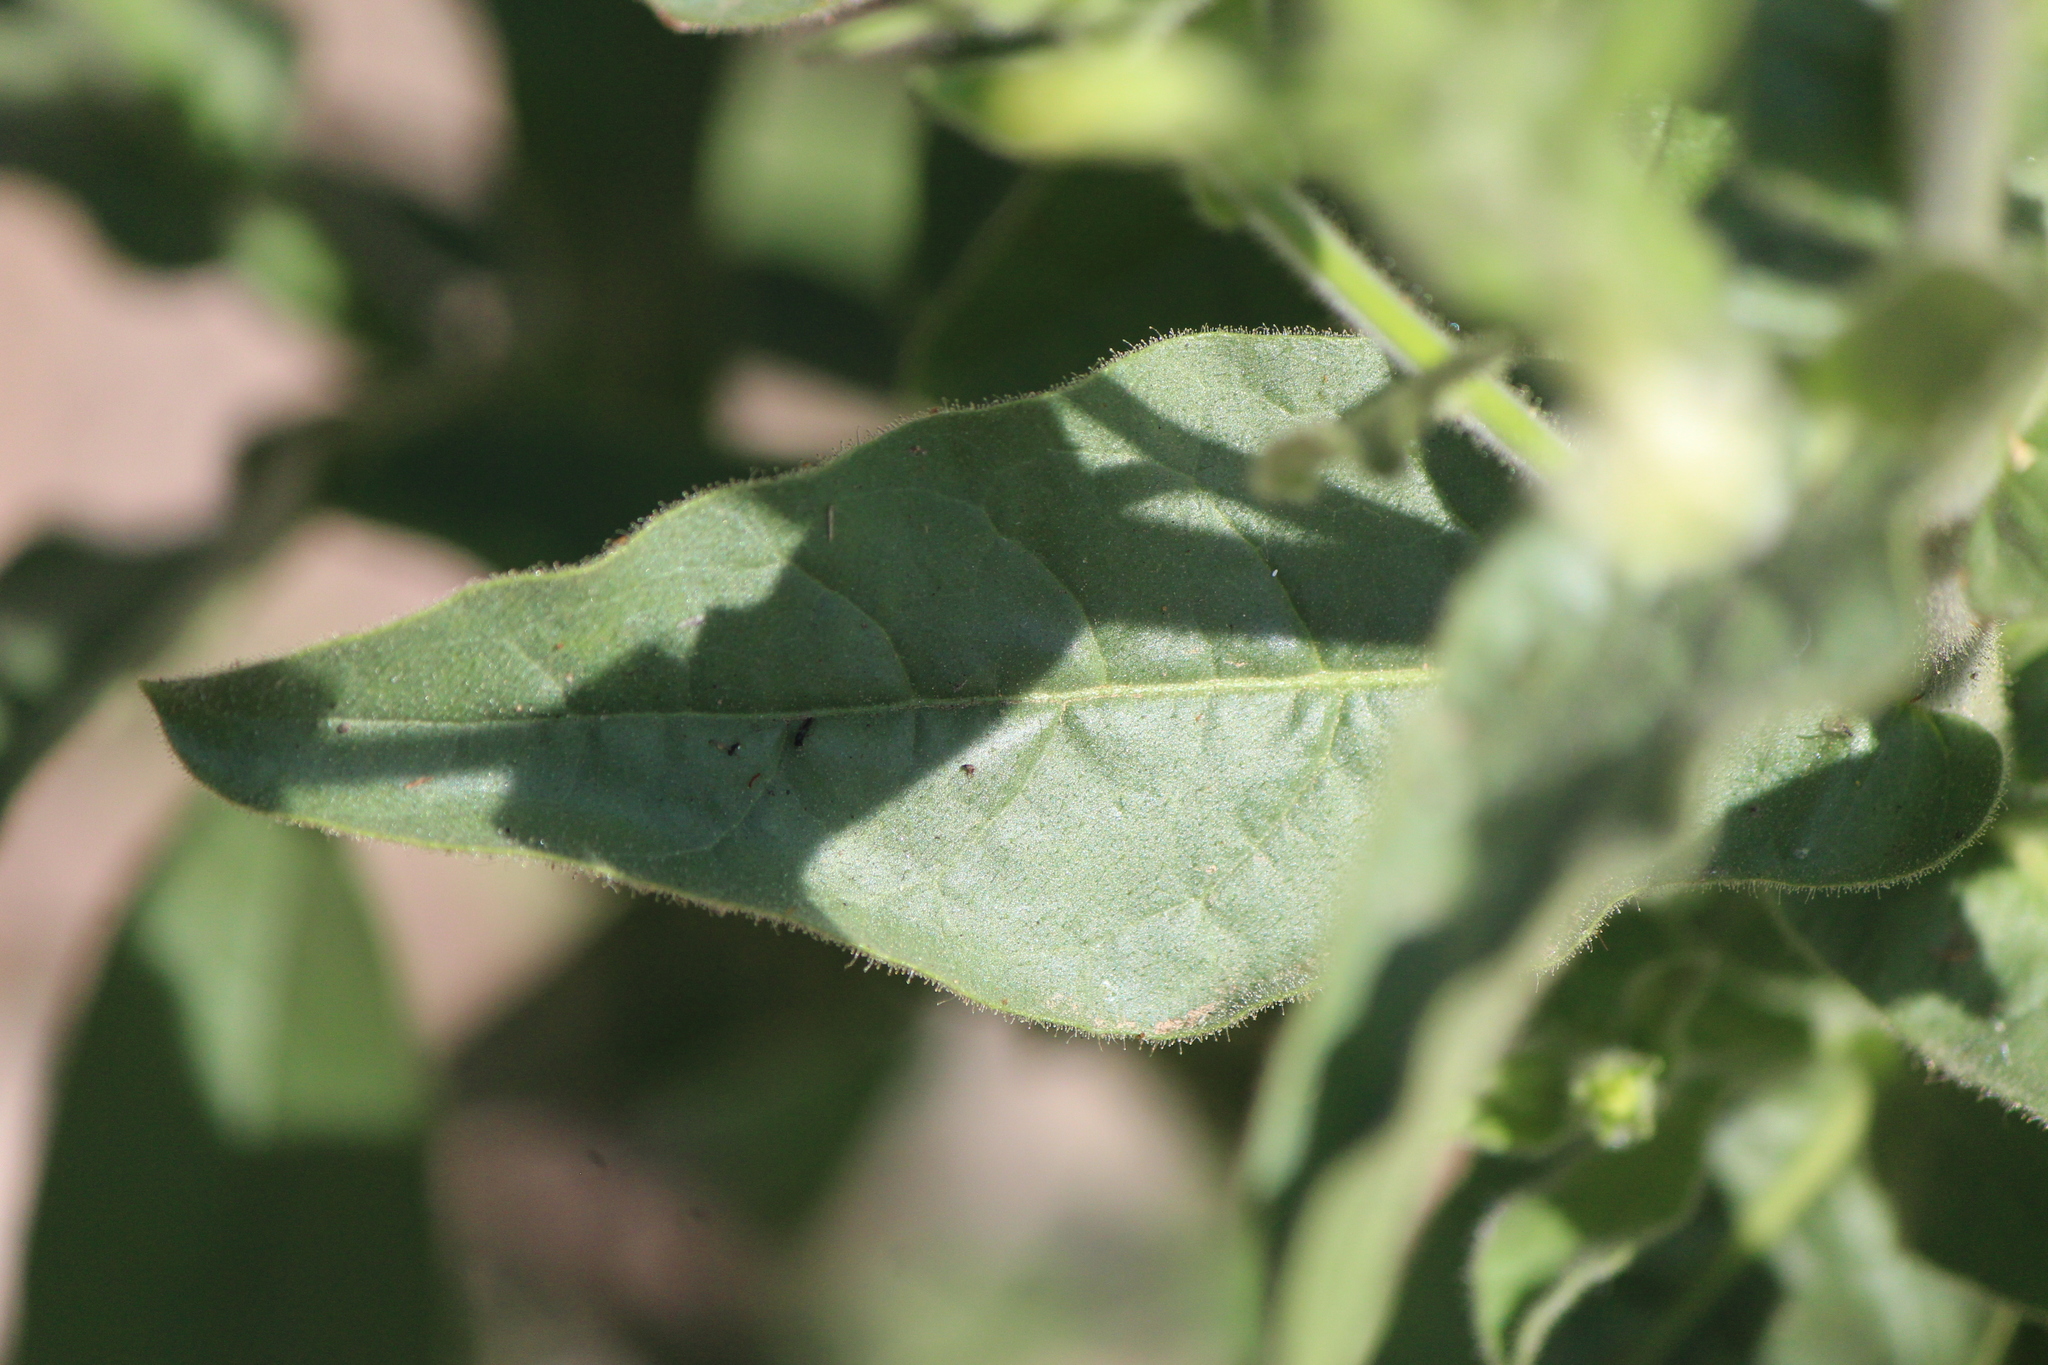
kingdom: Plantae
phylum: Tracheophyta
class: Magnoliopsida
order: Brassicales
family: Brassicaceae
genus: Brassica
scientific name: Brassica rapa
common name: Field mustard
